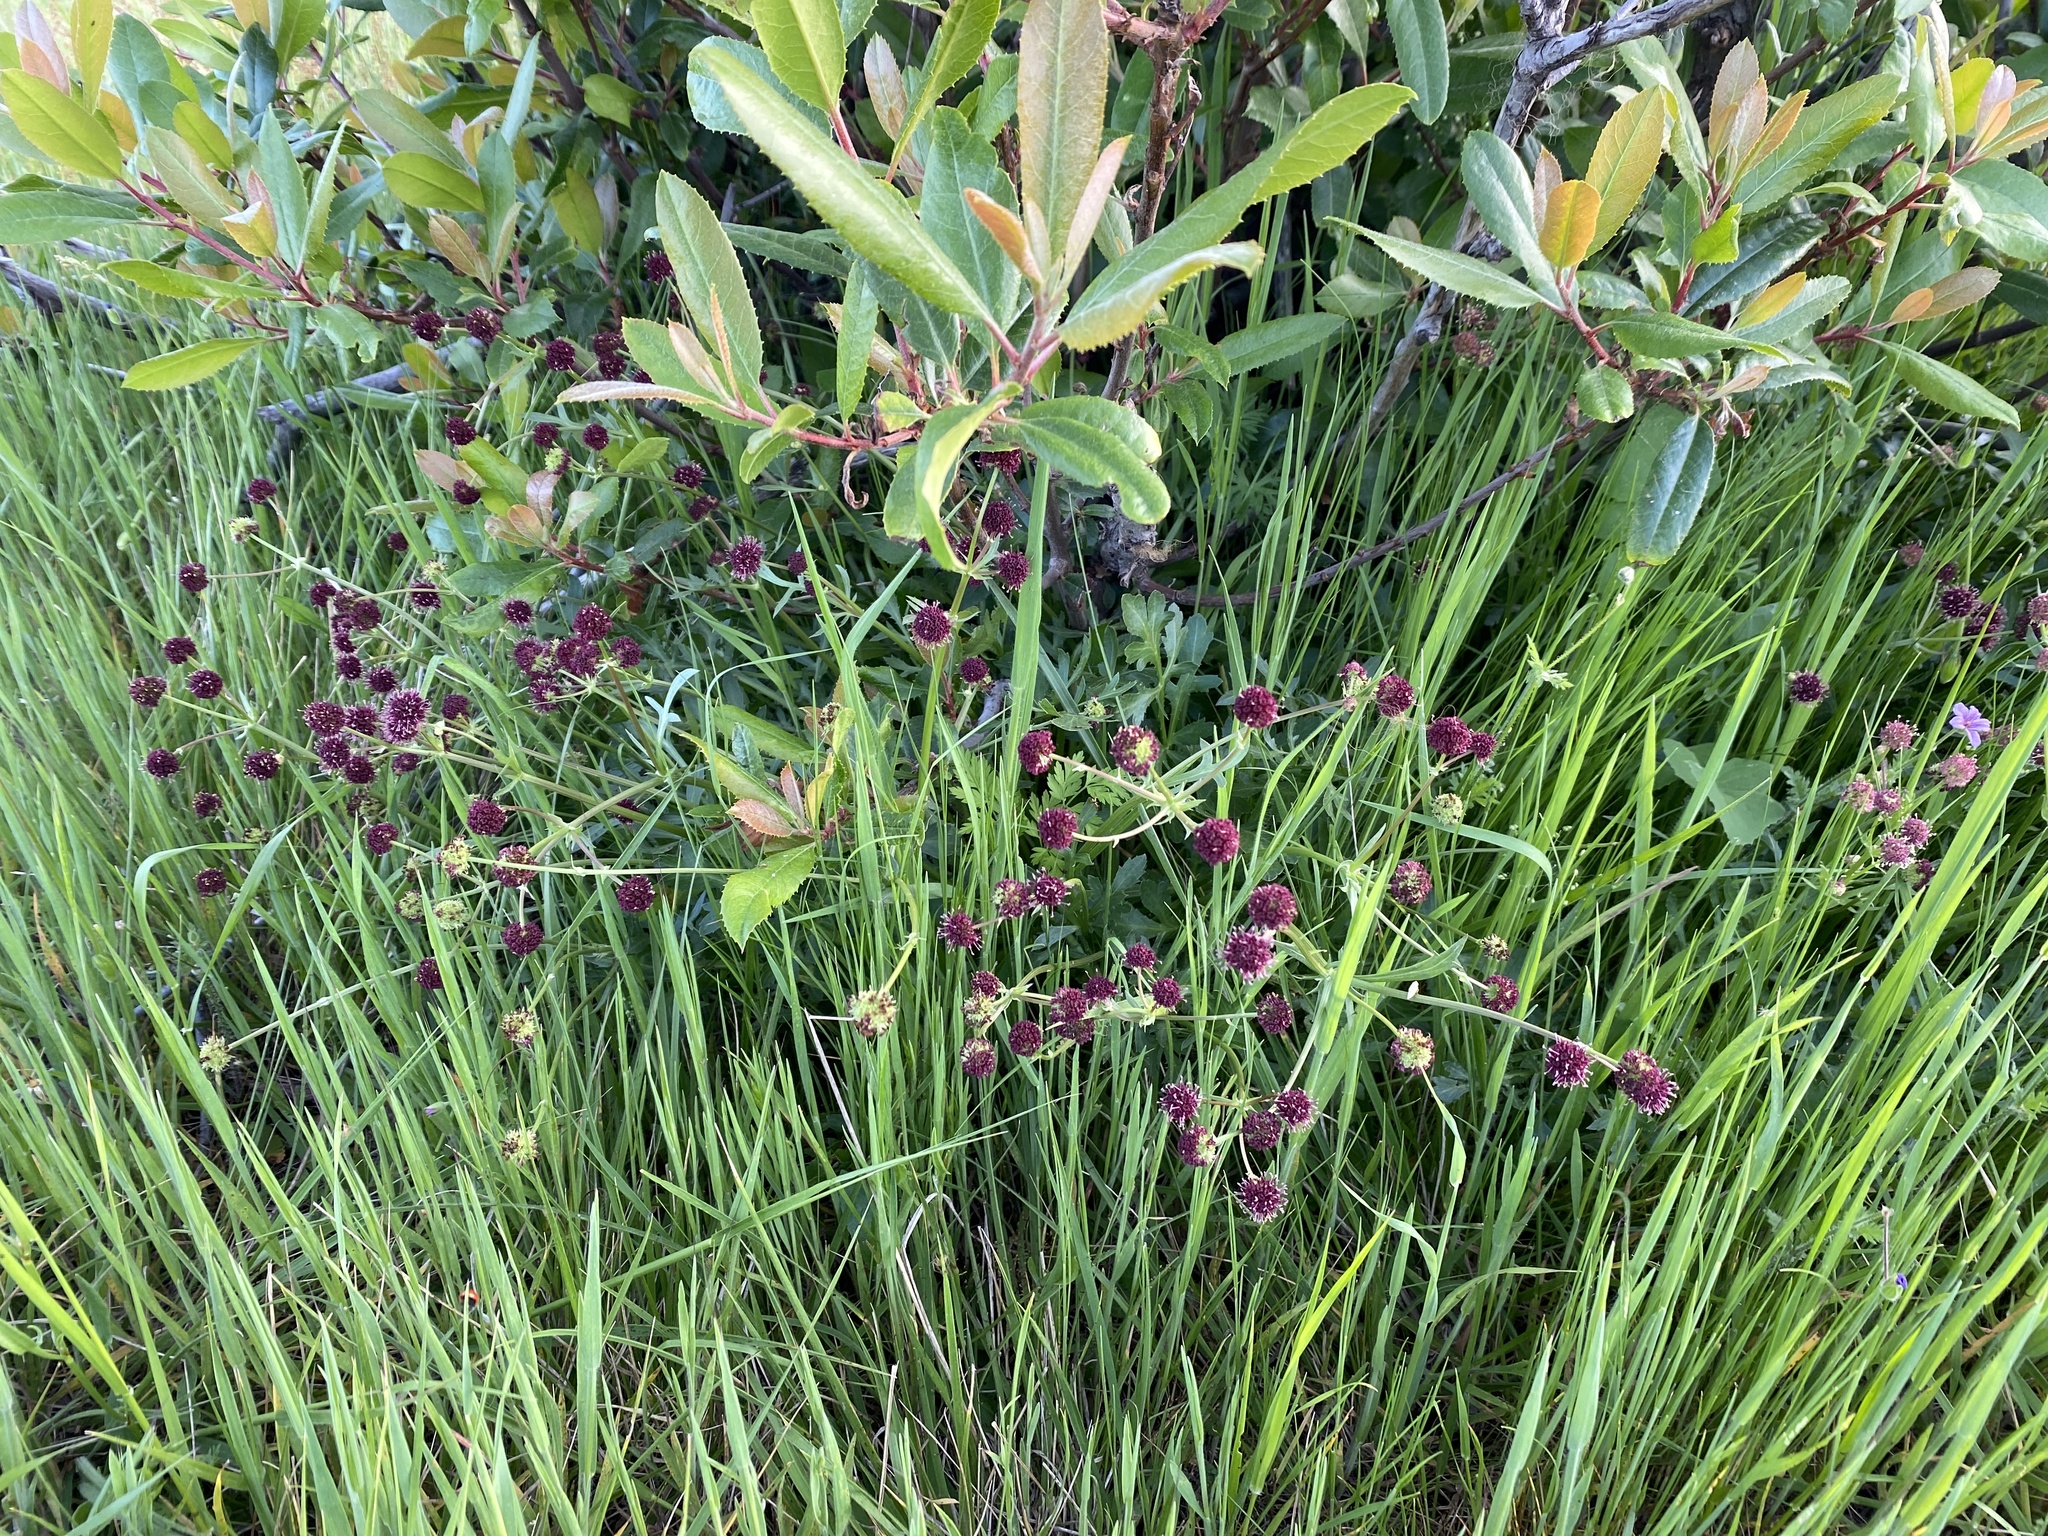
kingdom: Plantae
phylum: Tracheophyta
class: Magnoliopsida
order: Apiales
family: Apiaceae
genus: Sanicula
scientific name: Sanicula bipinnatifida
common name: Shoe-buttons
